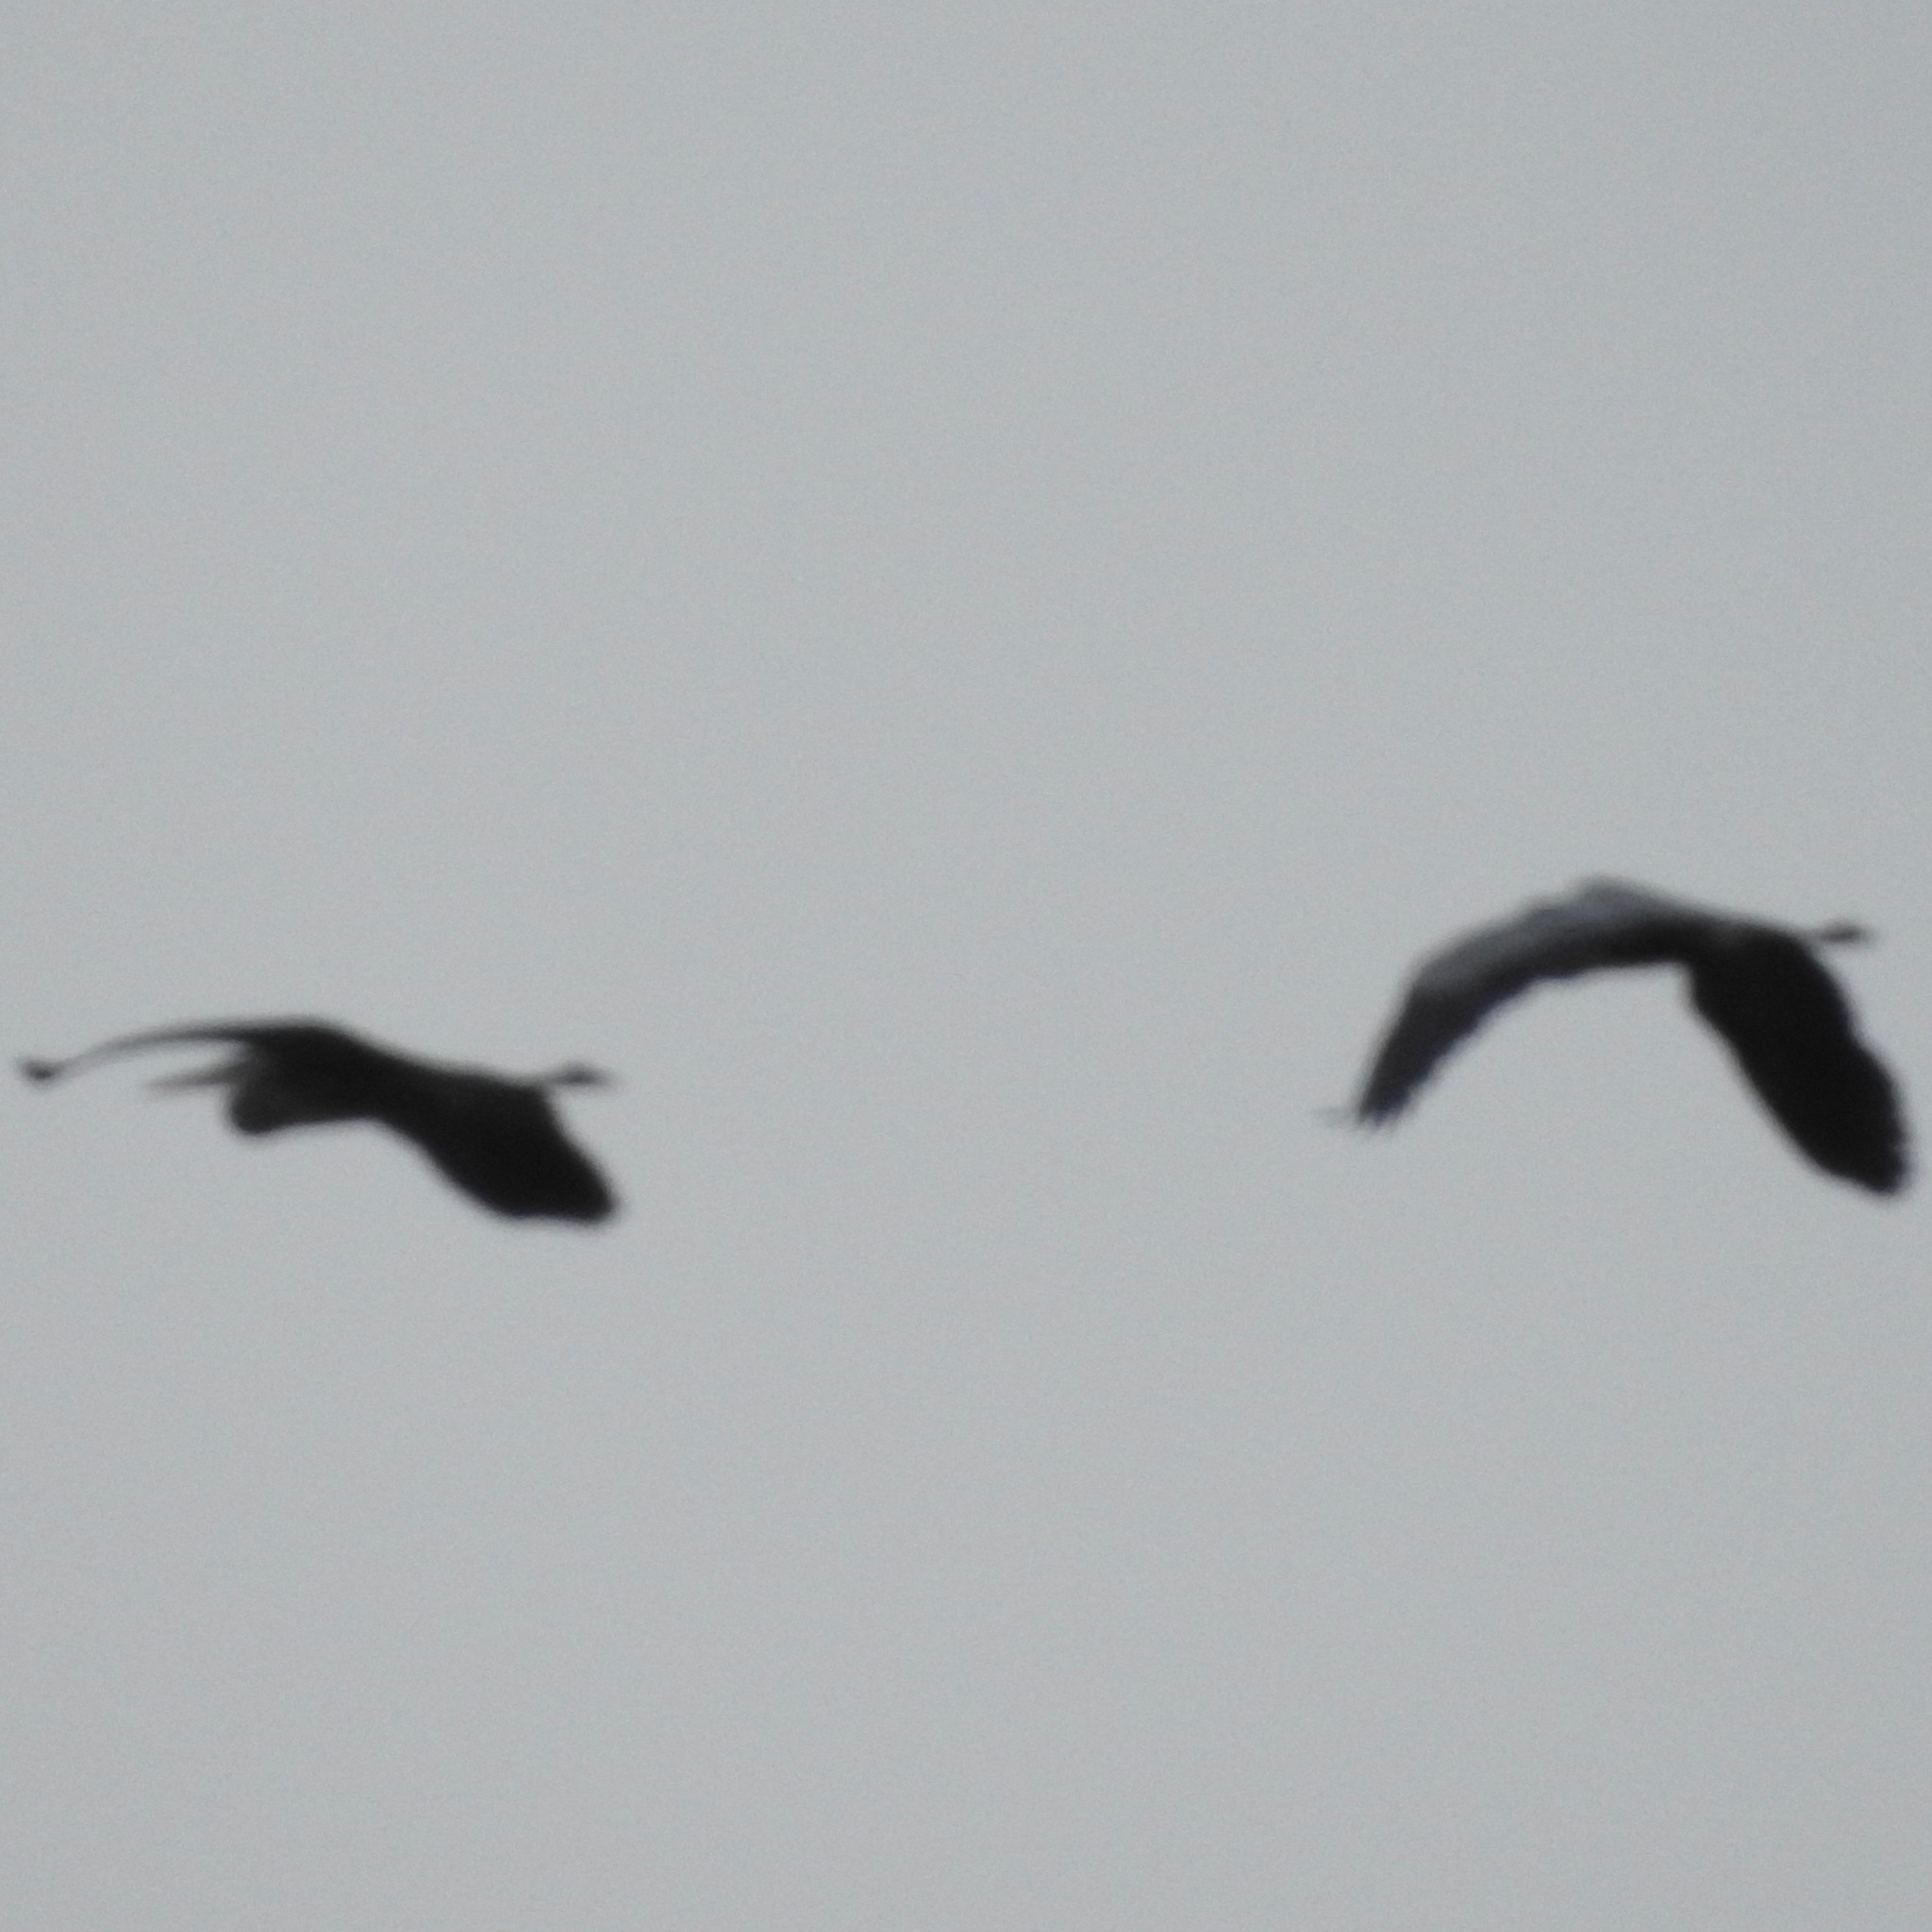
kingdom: Animalia
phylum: Chordata
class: Aves
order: Pelecaniformes
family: Ardeidae
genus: Ardea
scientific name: Ardea herodias
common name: Great blue heron
